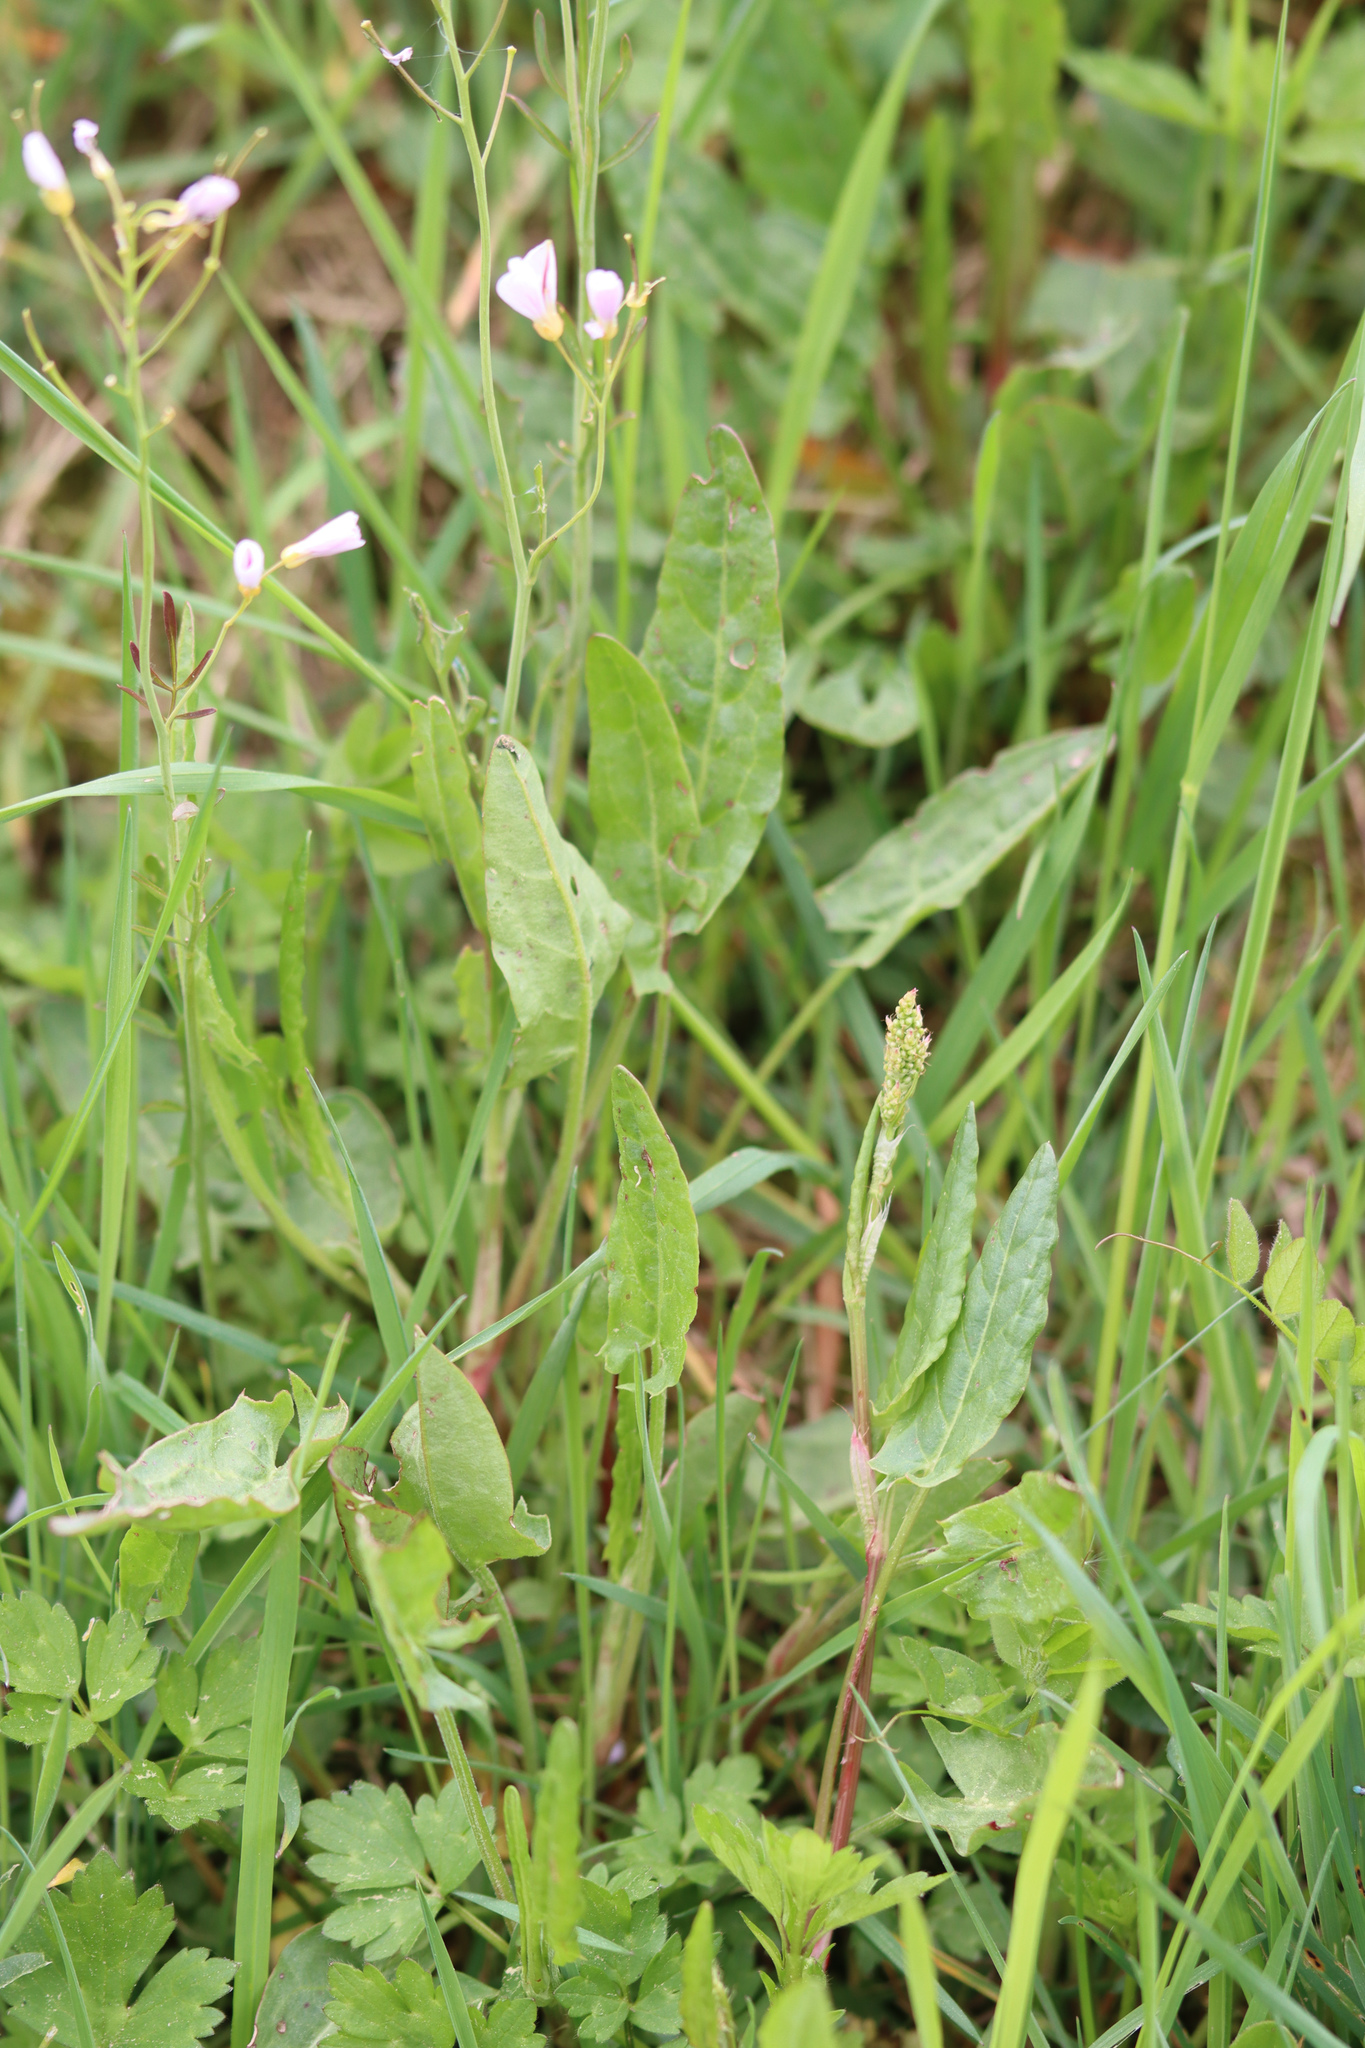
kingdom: Plantae
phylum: Tracheophyta
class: Magnoliopsida
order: Caryophyllales
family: Polygonaceae
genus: Rumex
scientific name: Rumex acetosa
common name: Garden sorrel
